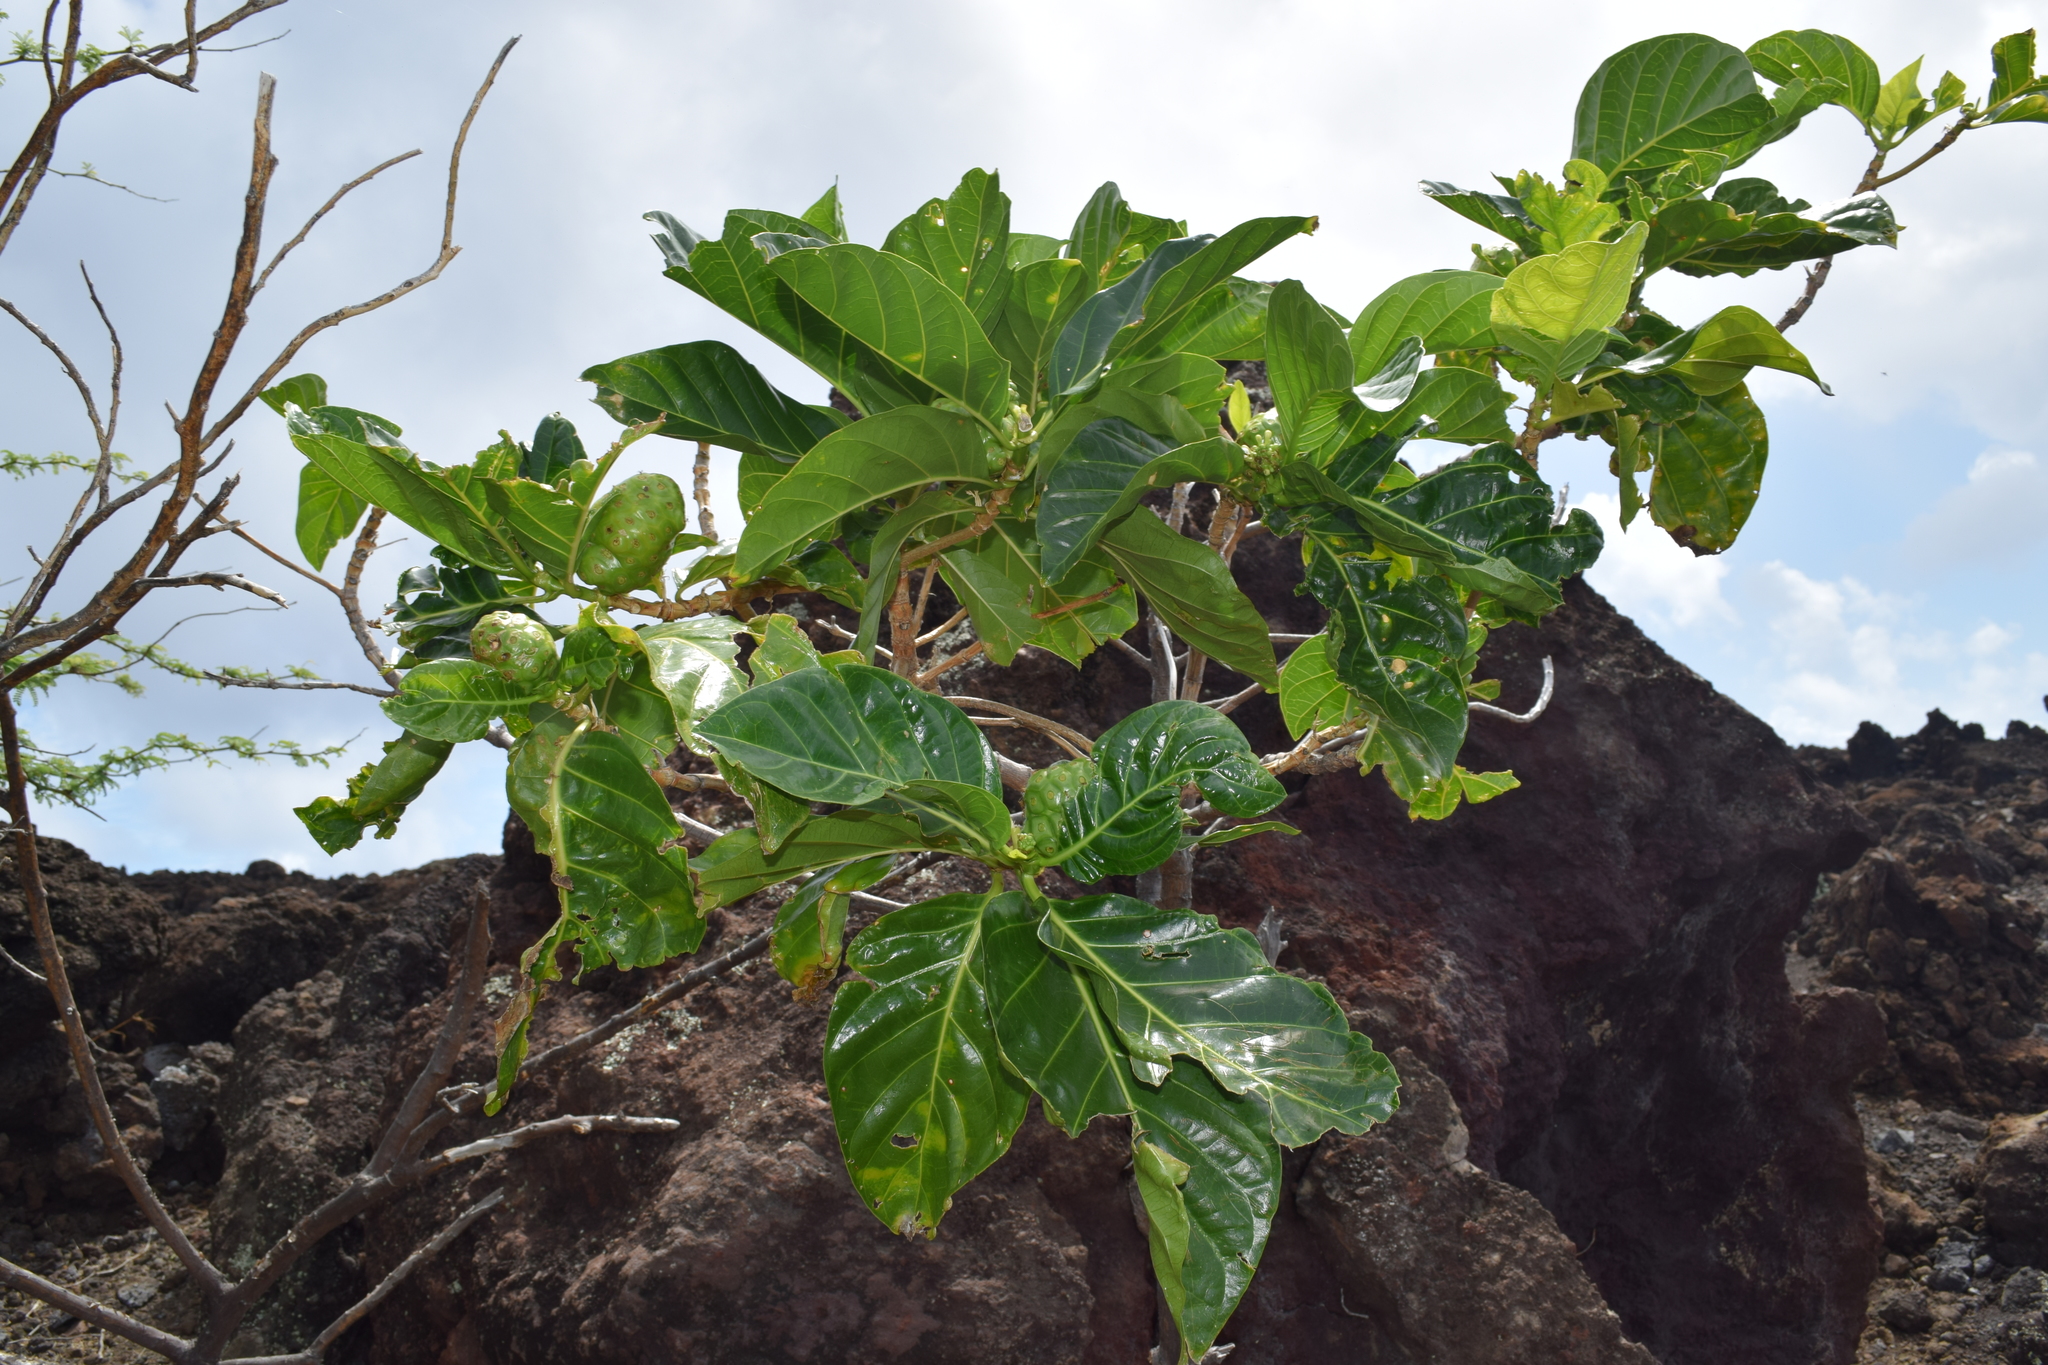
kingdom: Plantae
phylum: Tracheophyta
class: Magnoliopsida
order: Gentianales
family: Rubiaceae
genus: Morinda
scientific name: Morinda citrifolia
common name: Indian-mulberry
